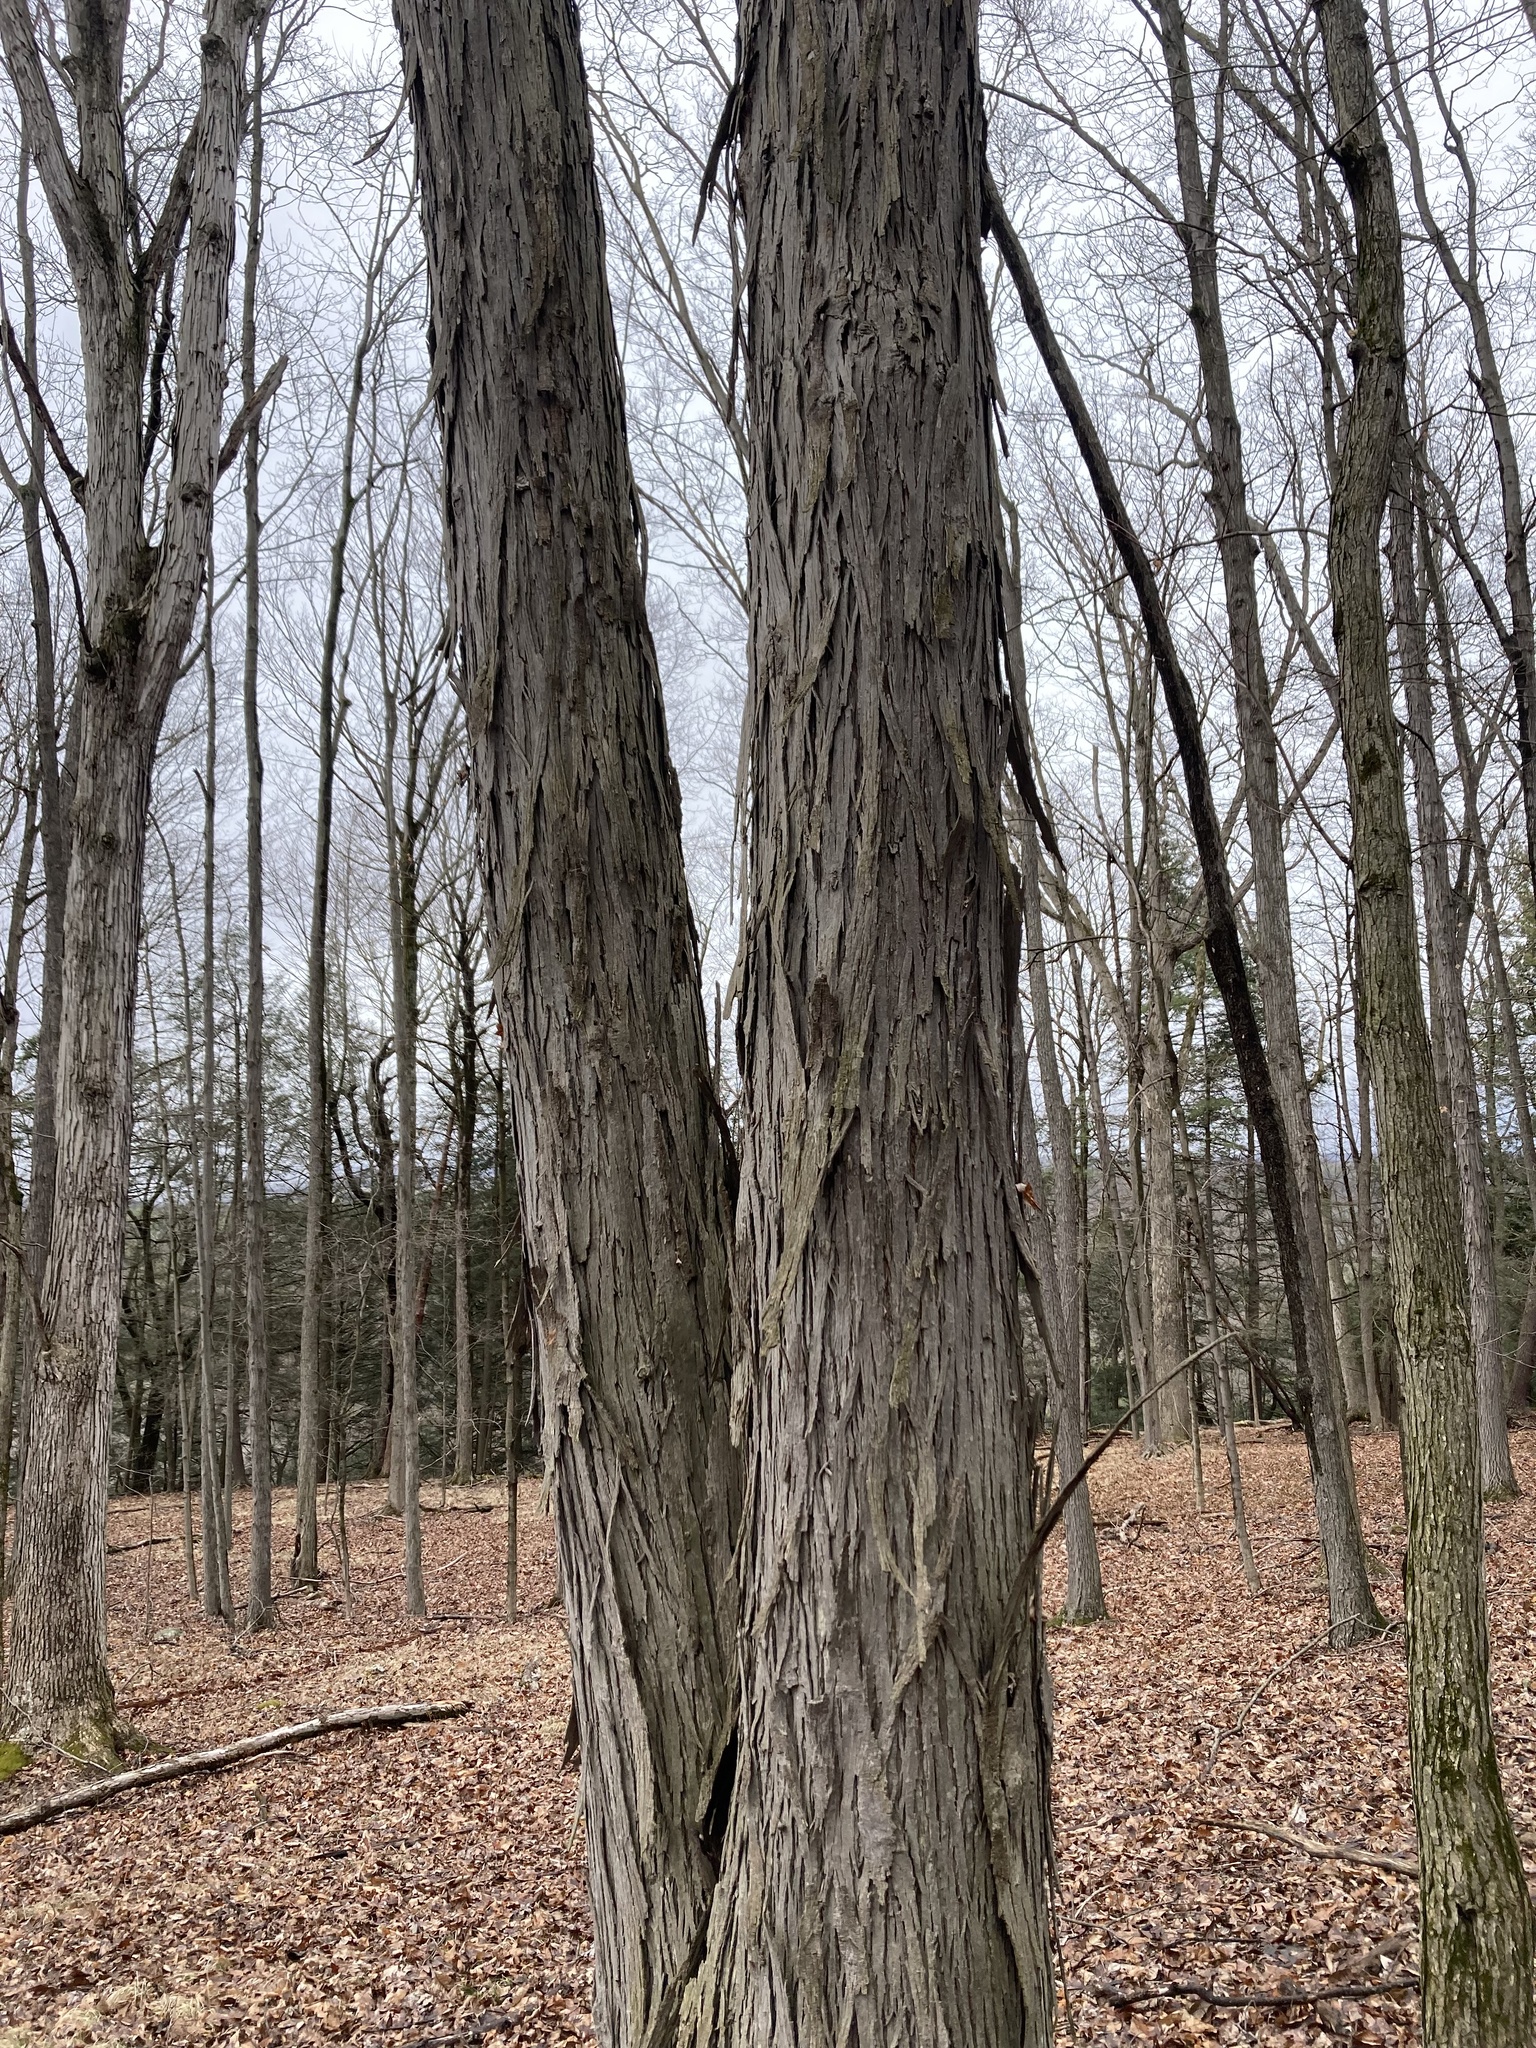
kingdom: Plantae
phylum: Tracheophyta
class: Magnoliopsida
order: Fagales
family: Juglandaceae
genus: Carya
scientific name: Carya ovata
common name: Shagbark hickory
